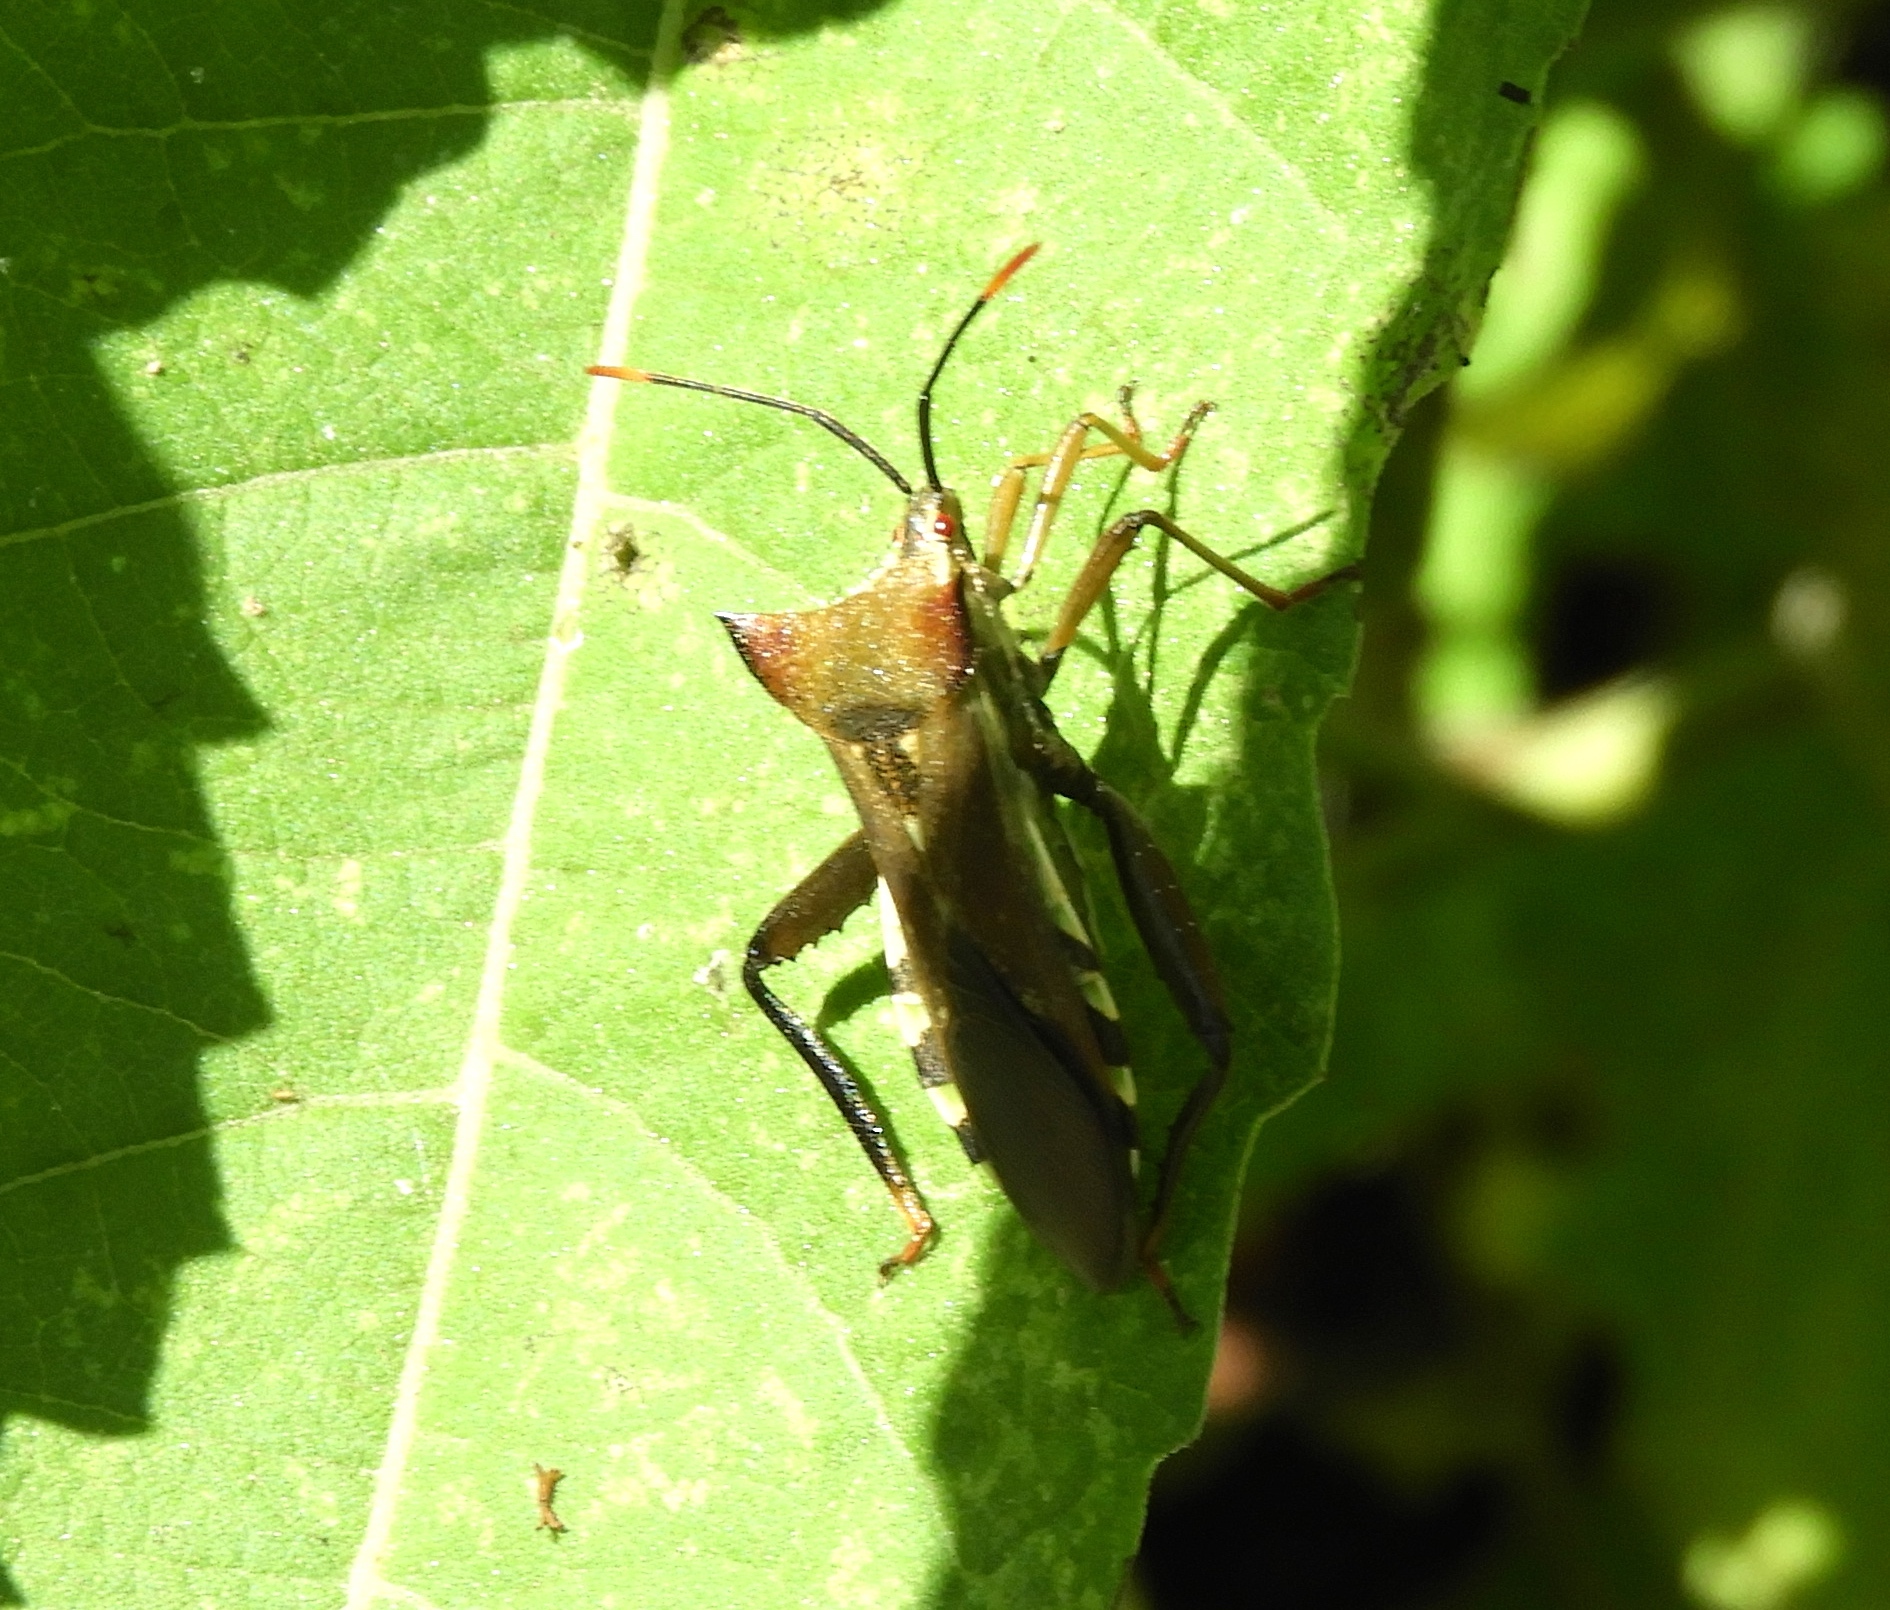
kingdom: Animalia
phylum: Arthropoda
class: Insecta
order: Hemiptera
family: Coreidae
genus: Mozena
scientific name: Mozena lunata
